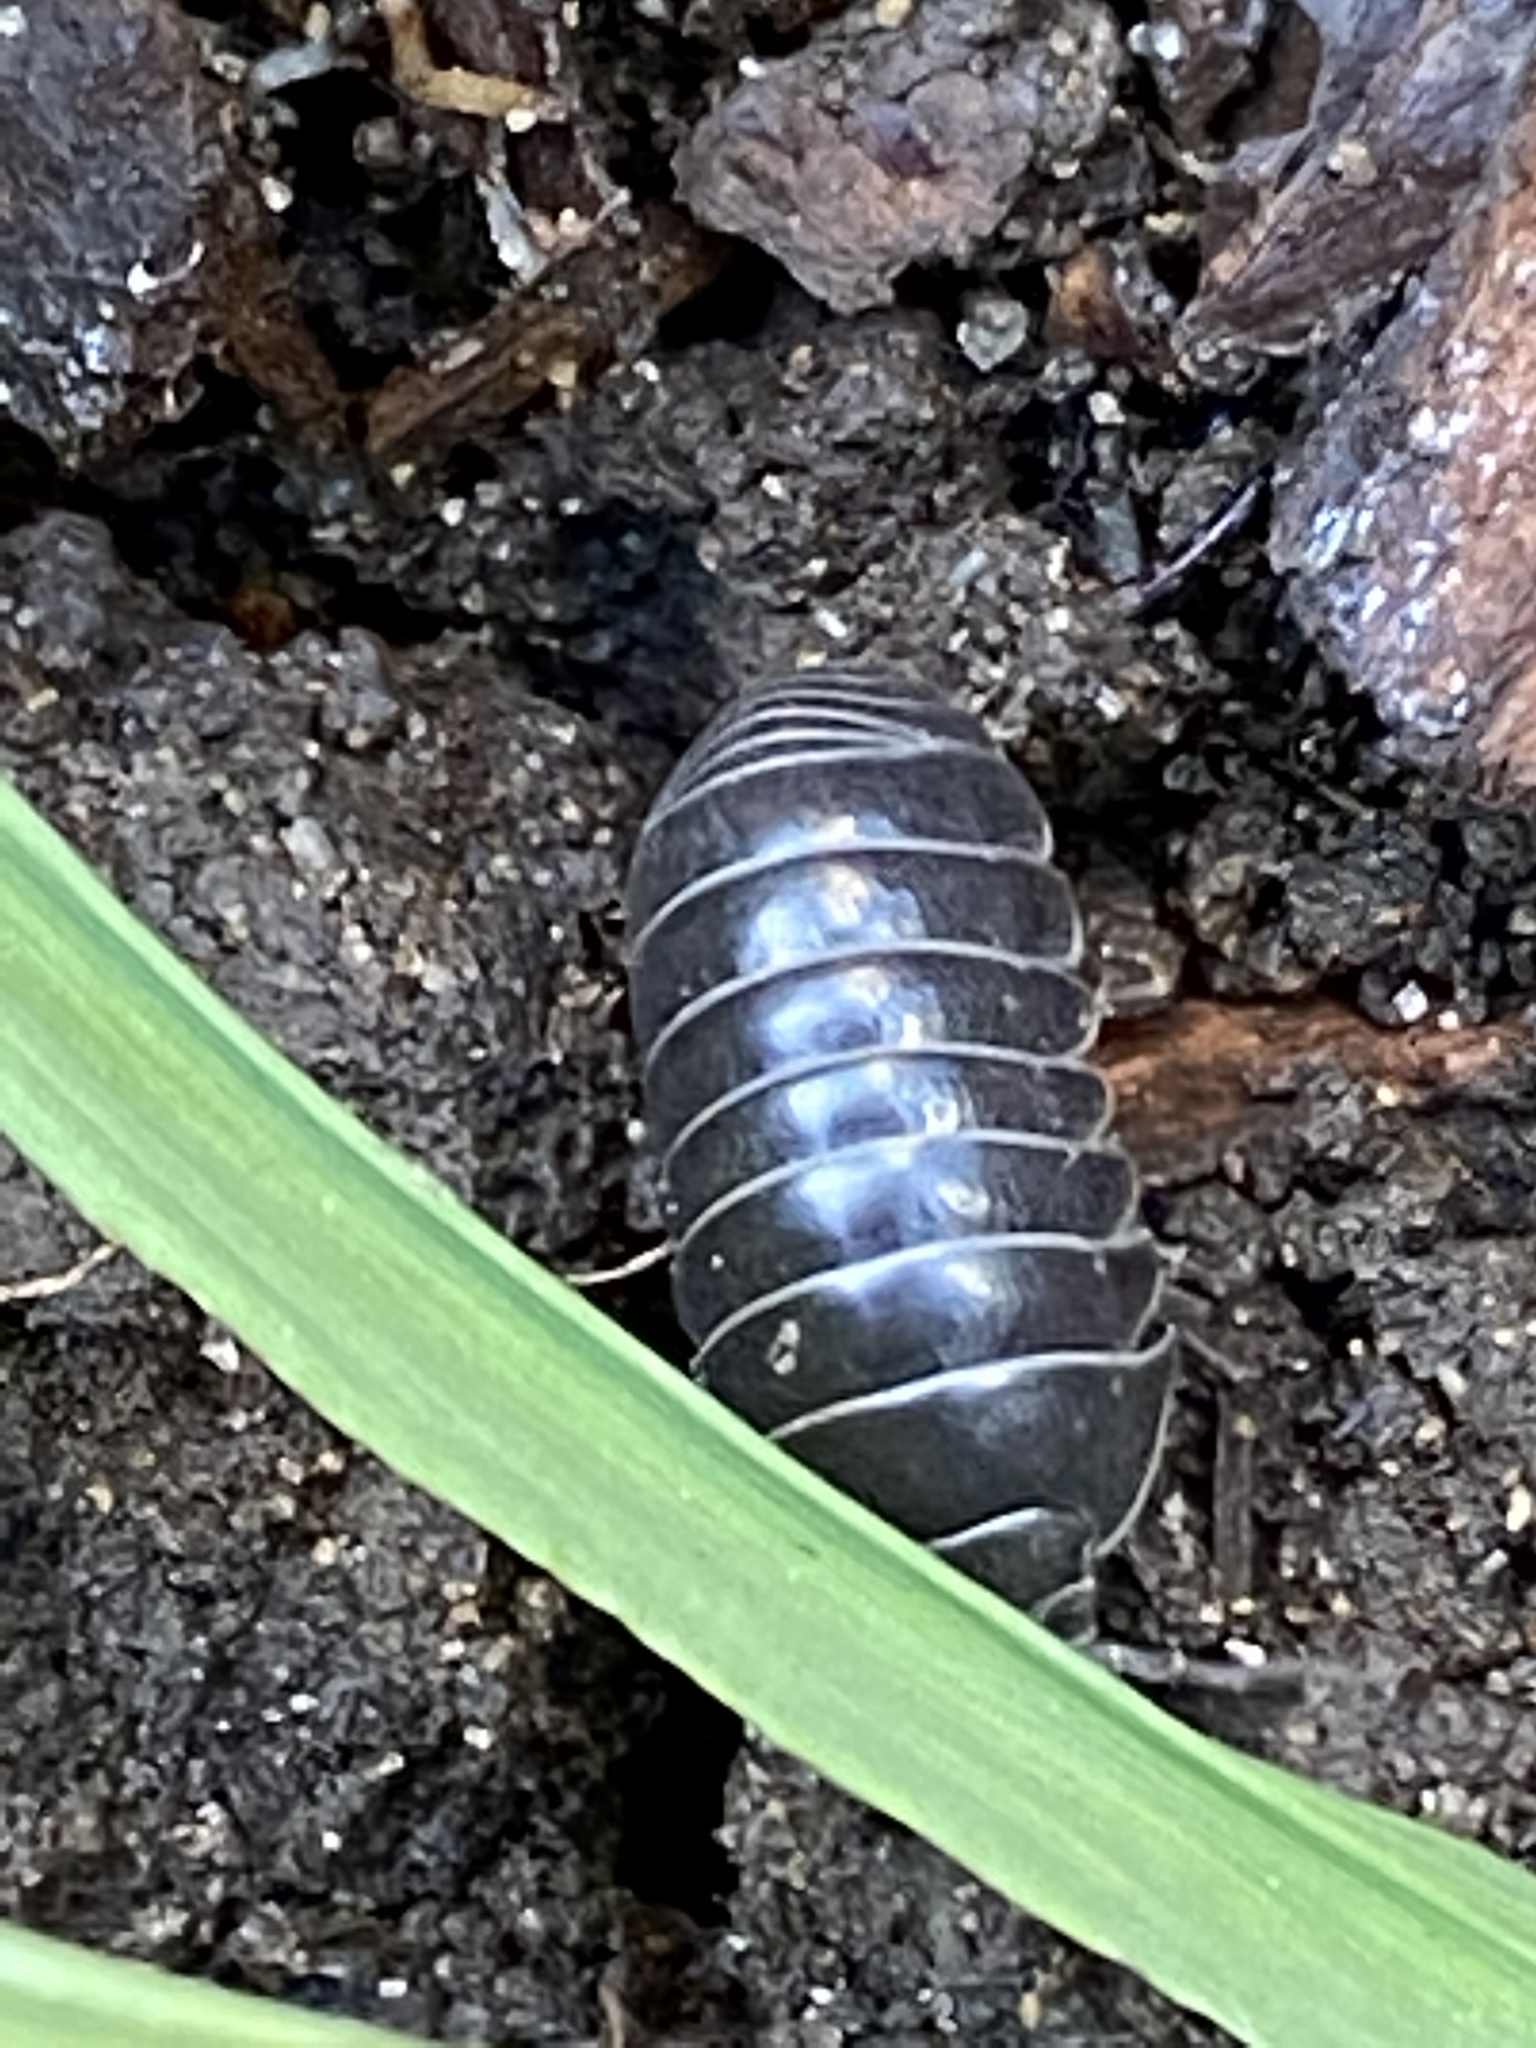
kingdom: Animalia
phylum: Arthropoda
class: Malacostraca
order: Isopoda
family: Armadillidiidae
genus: Armadillidium
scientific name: Armadillidium vulgare
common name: Common pill woodlouse
